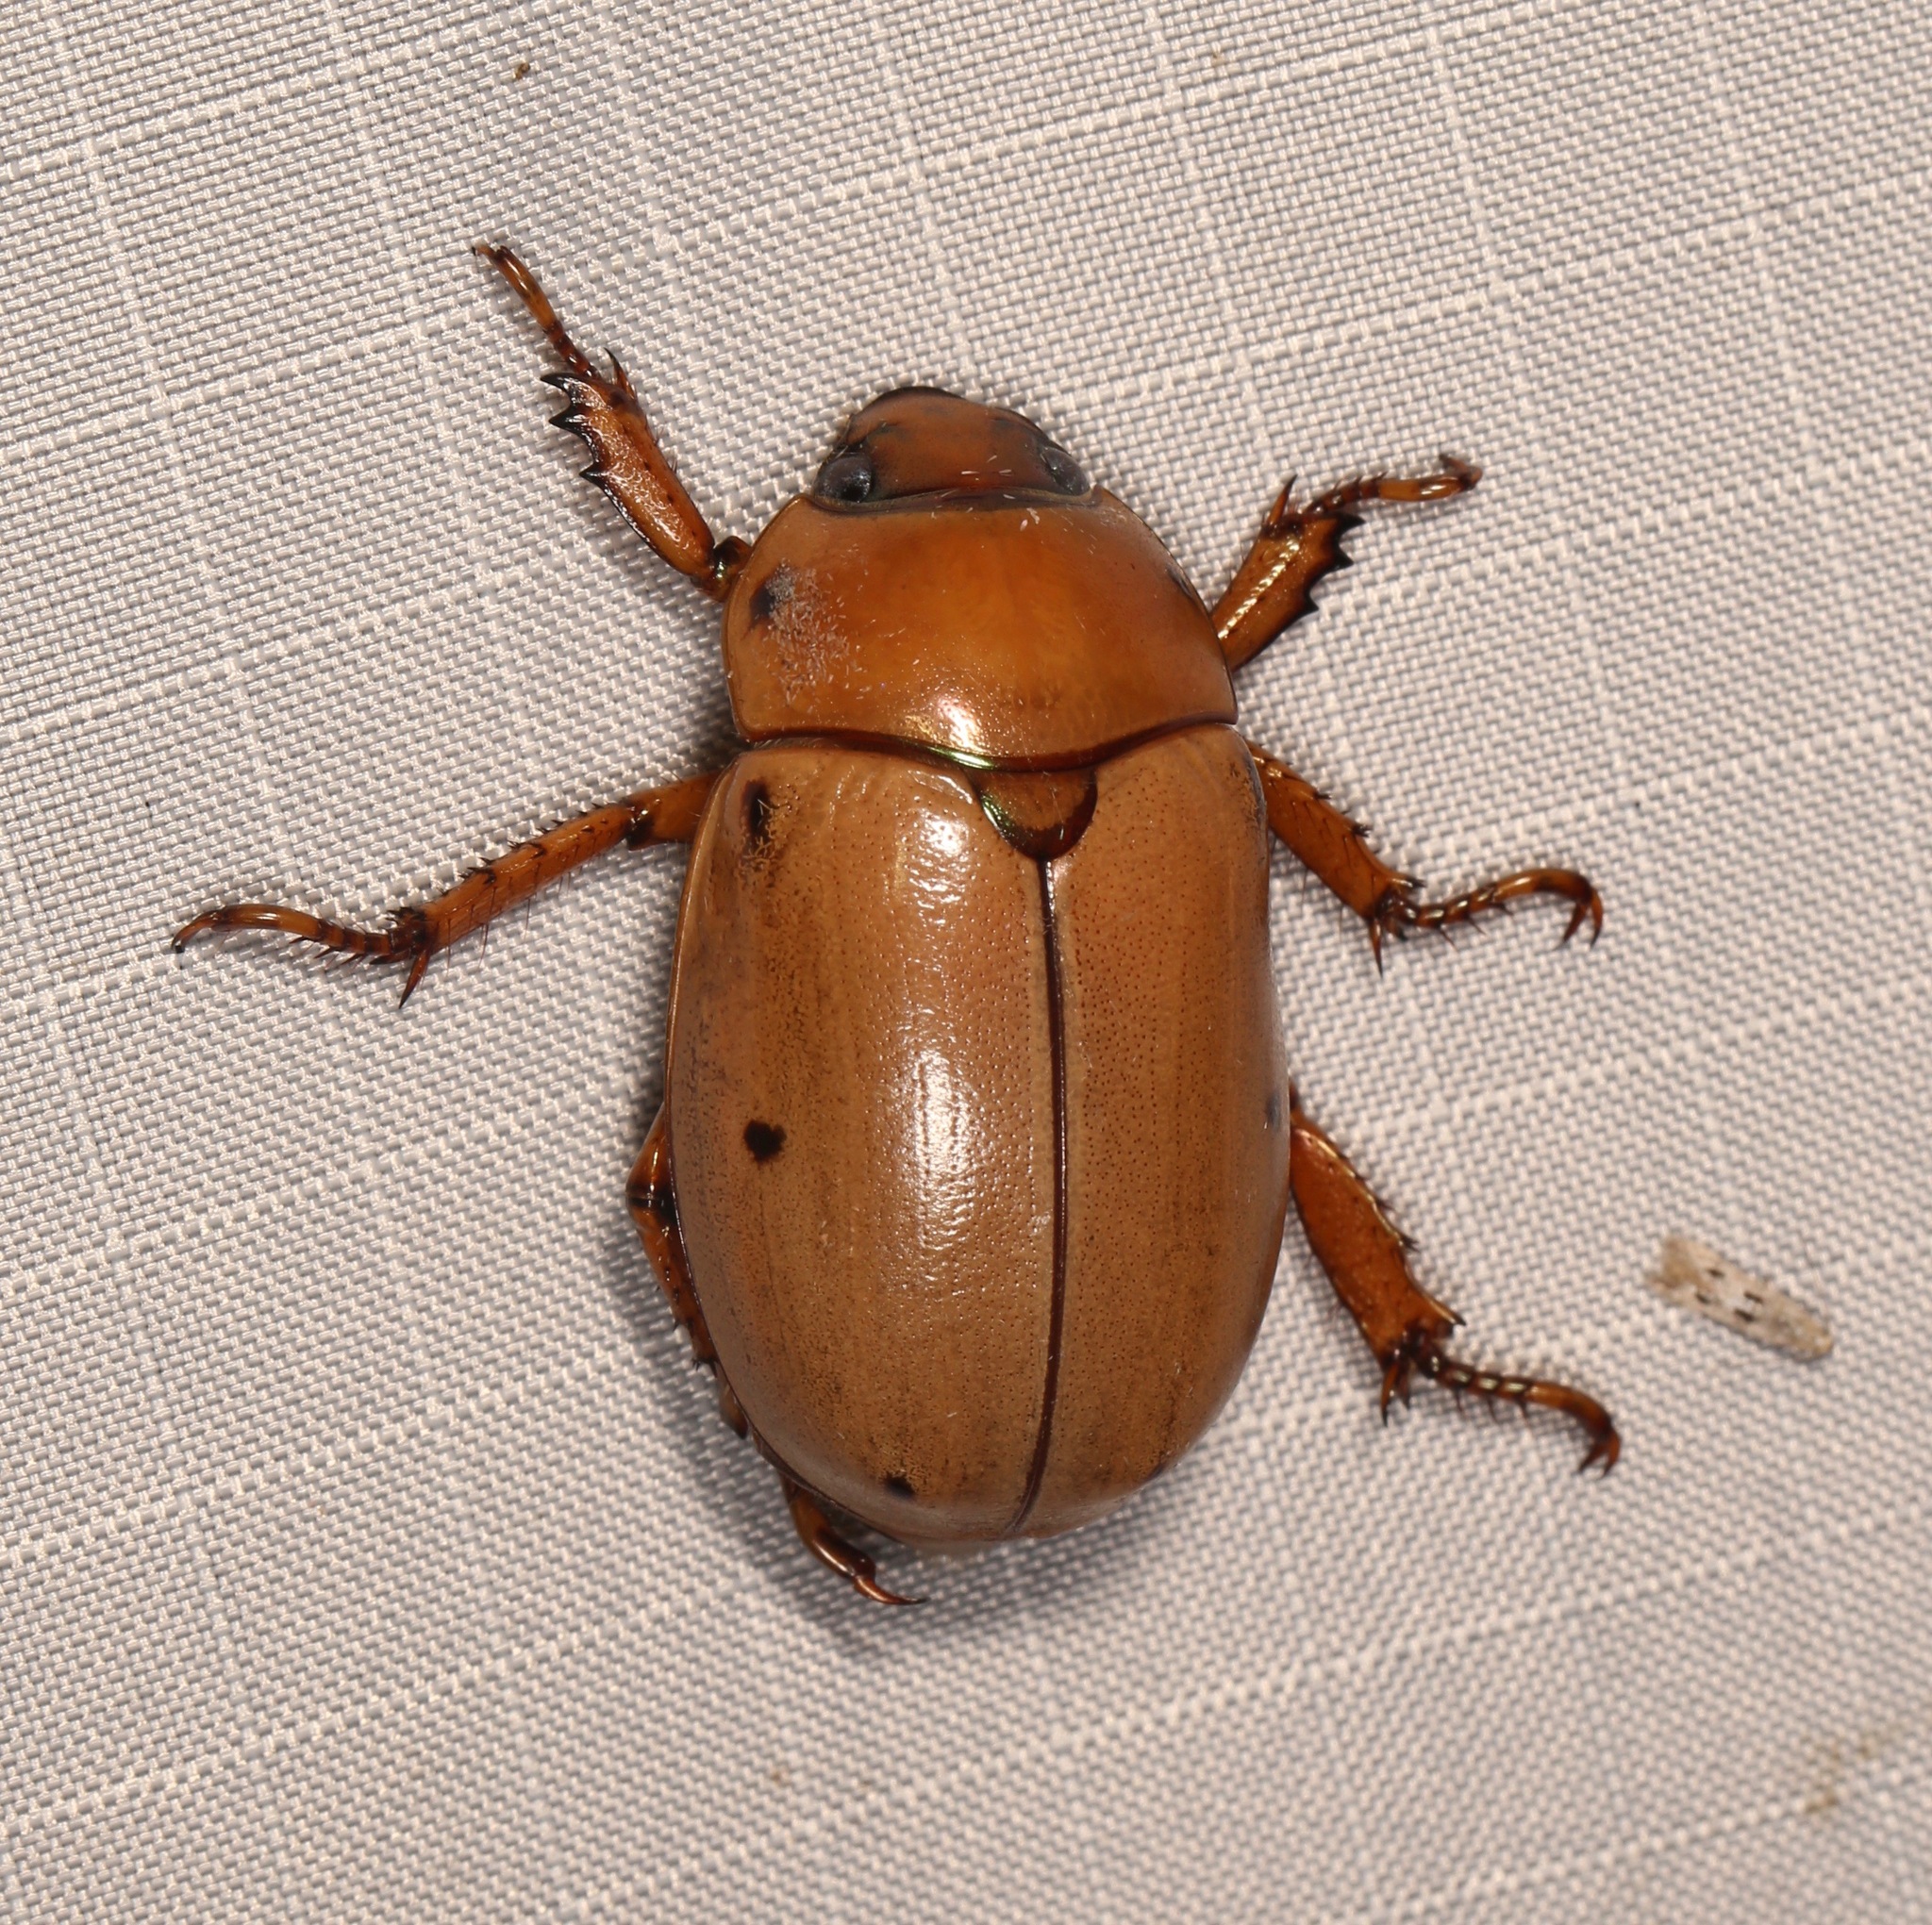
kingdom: Animalia
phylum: Arthropoda
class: Insecta
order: Coleoptera
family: Scarabaeidae
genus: Pelidnota
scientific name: Pelidnota punctata
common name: Grapevine beetle
